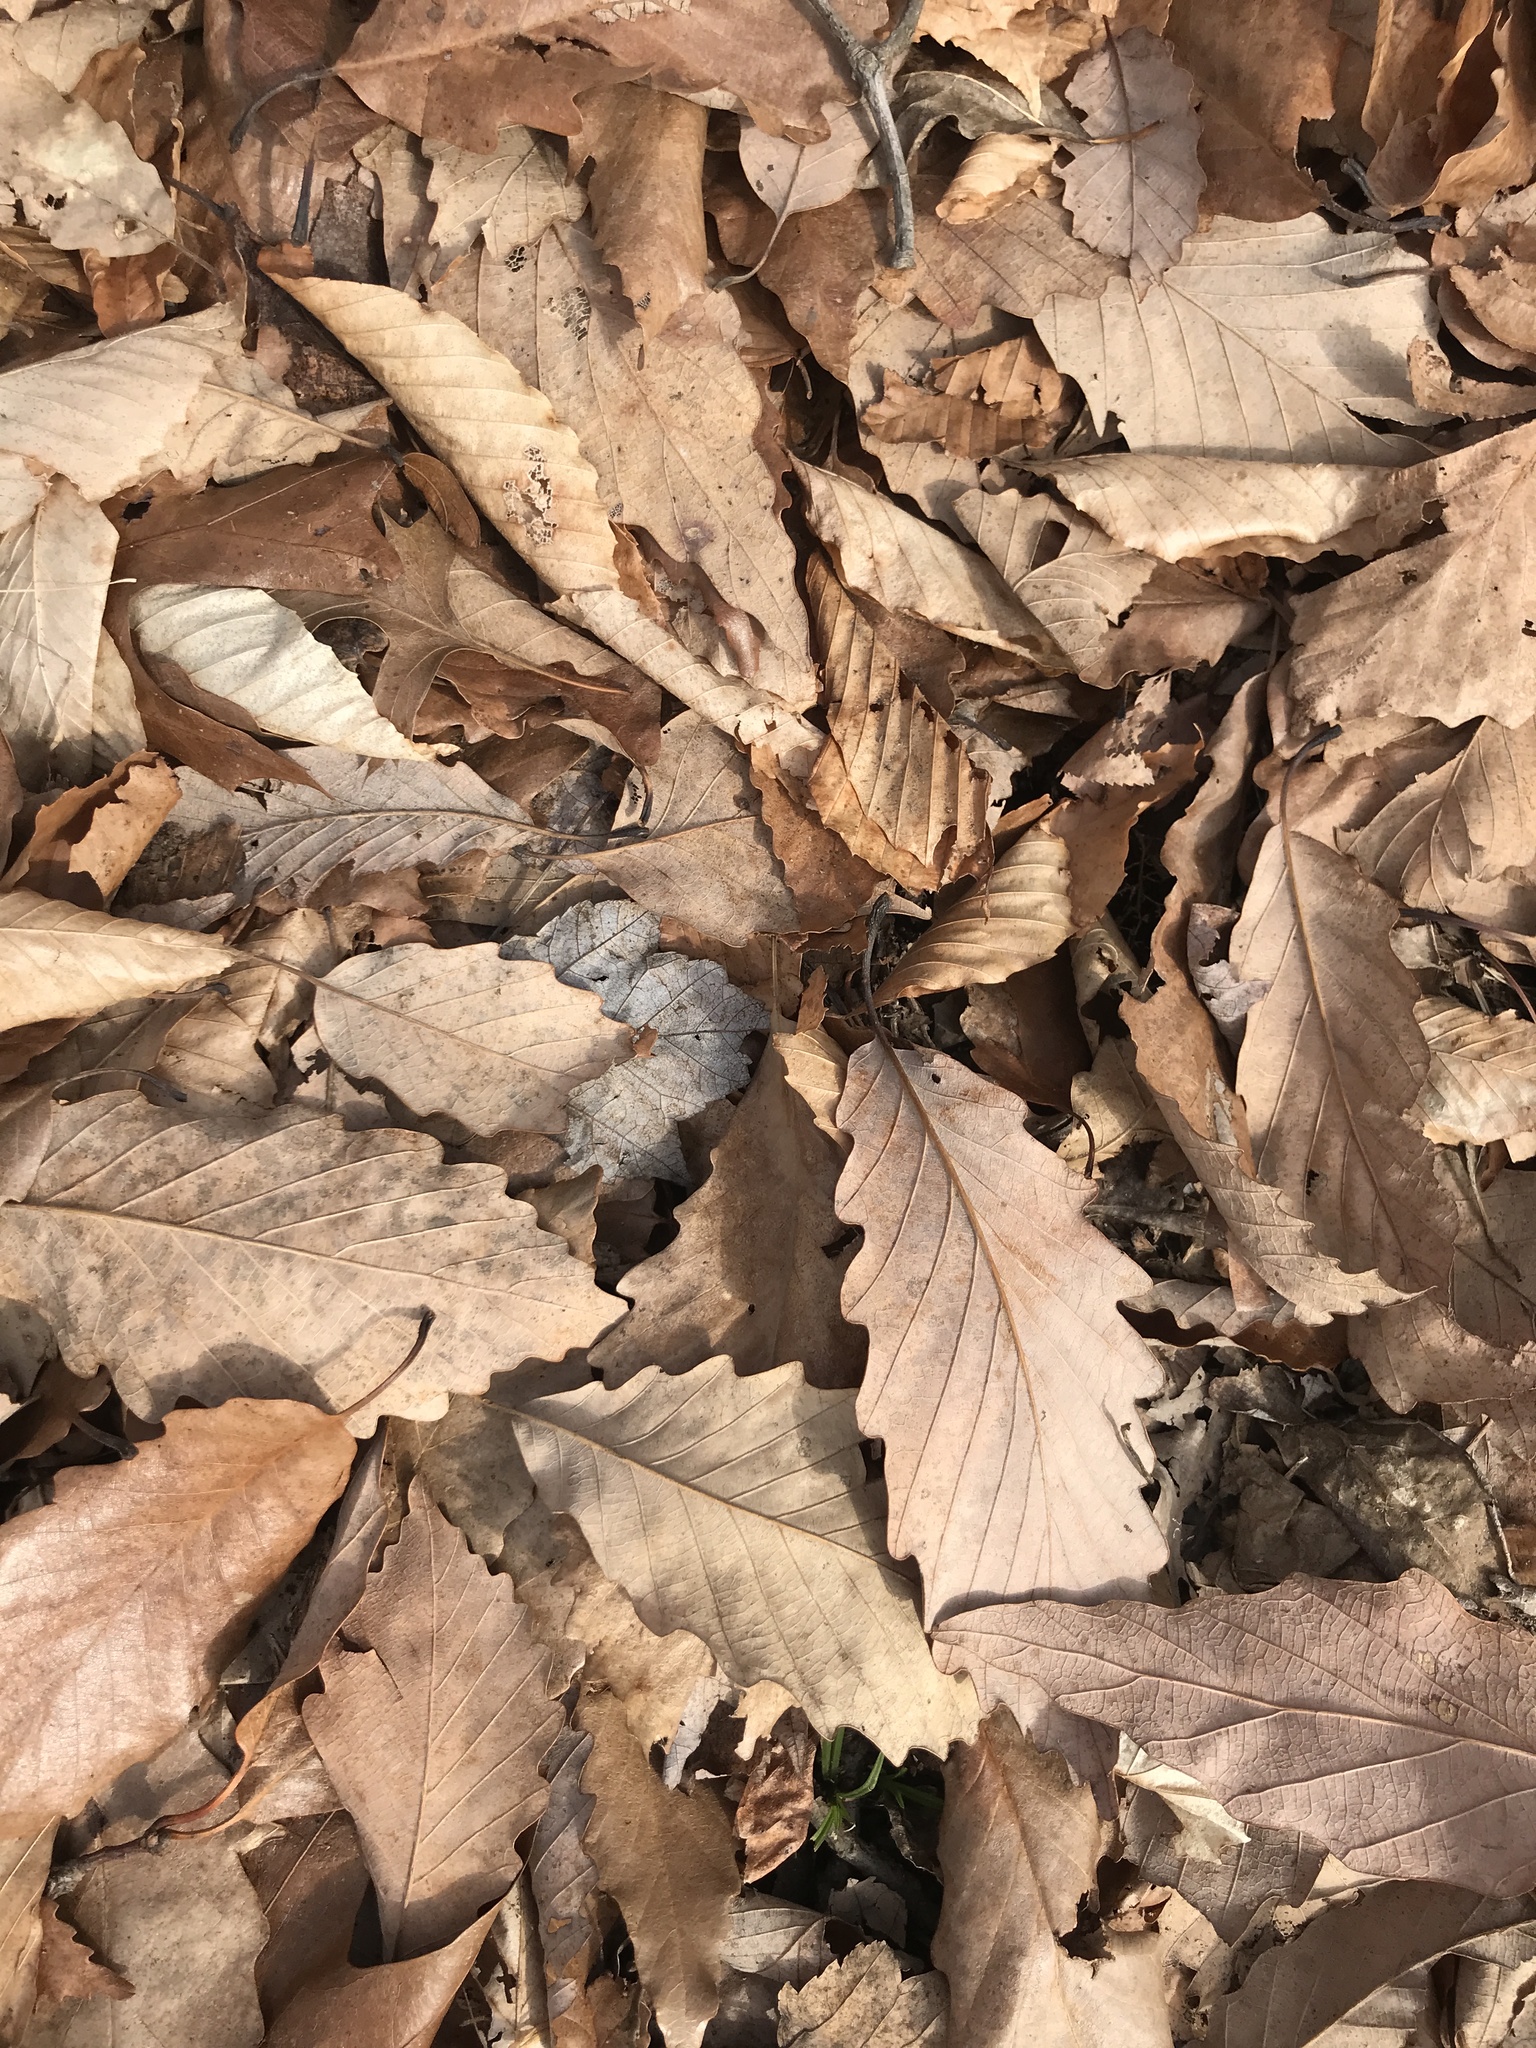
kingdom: Plantae
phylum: Tracheophyta
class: Magnoliopsida
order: Fagales
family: Fagaceae
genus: Quercus
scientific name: Quercus montana
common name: Chestnut oak
